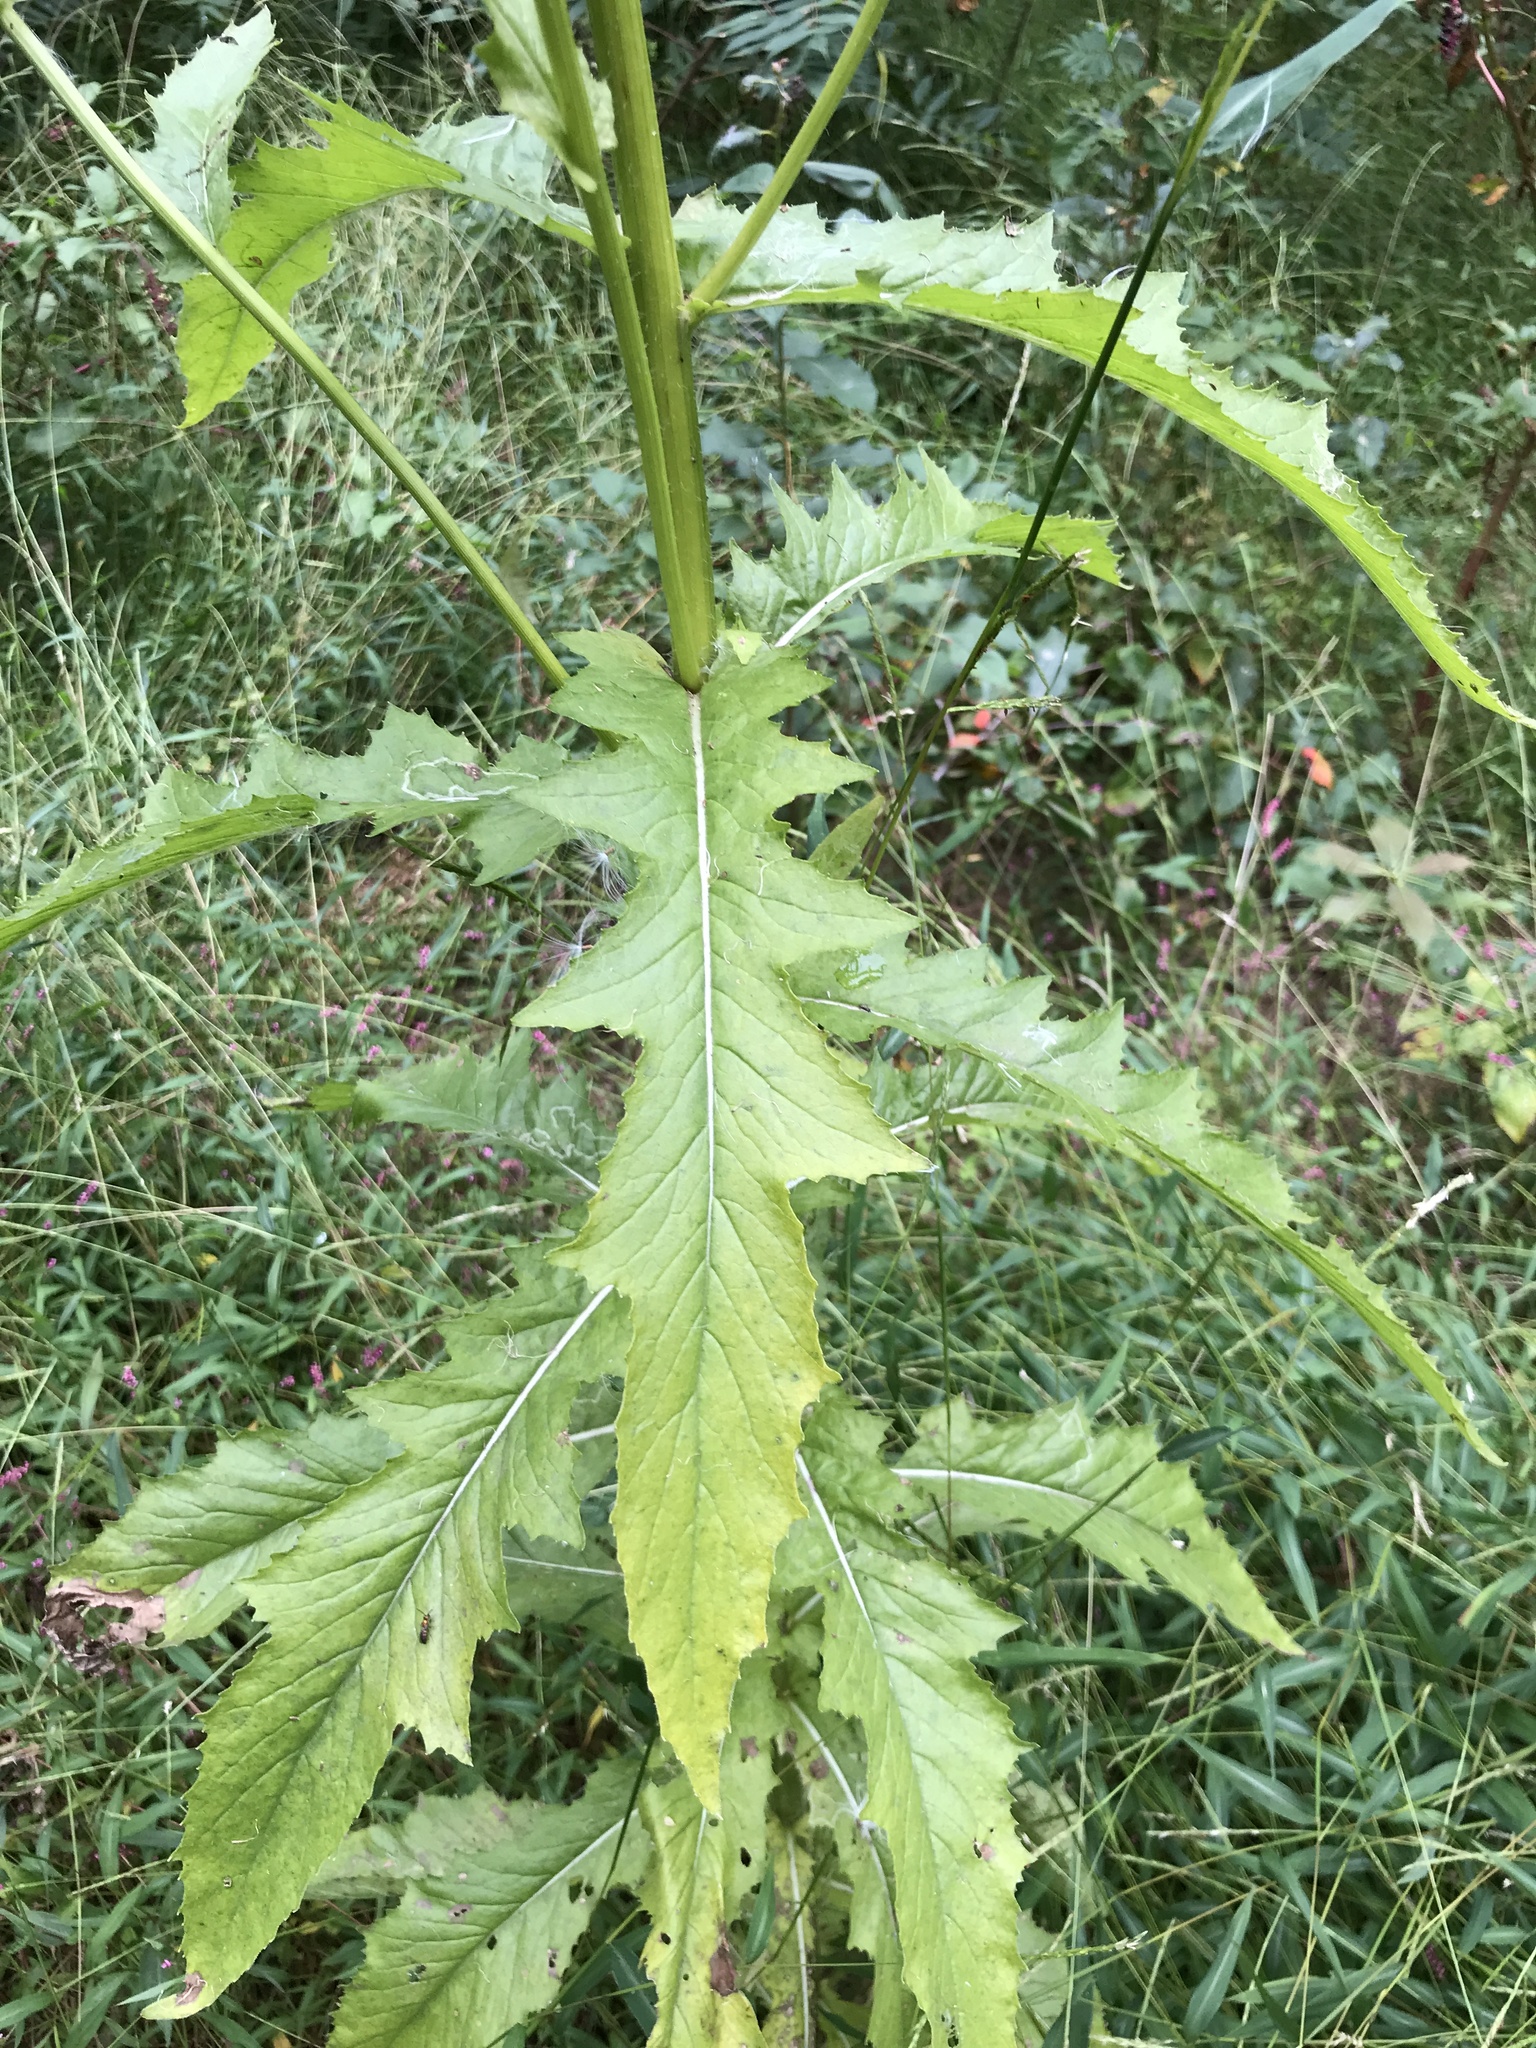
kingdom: Plantae
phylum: Tracheophyta
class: Magnoliopsida
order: Asterales
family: Asteraceae
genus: Erechtites
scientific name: Erechtites hieraciifolius
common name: American burnweed
